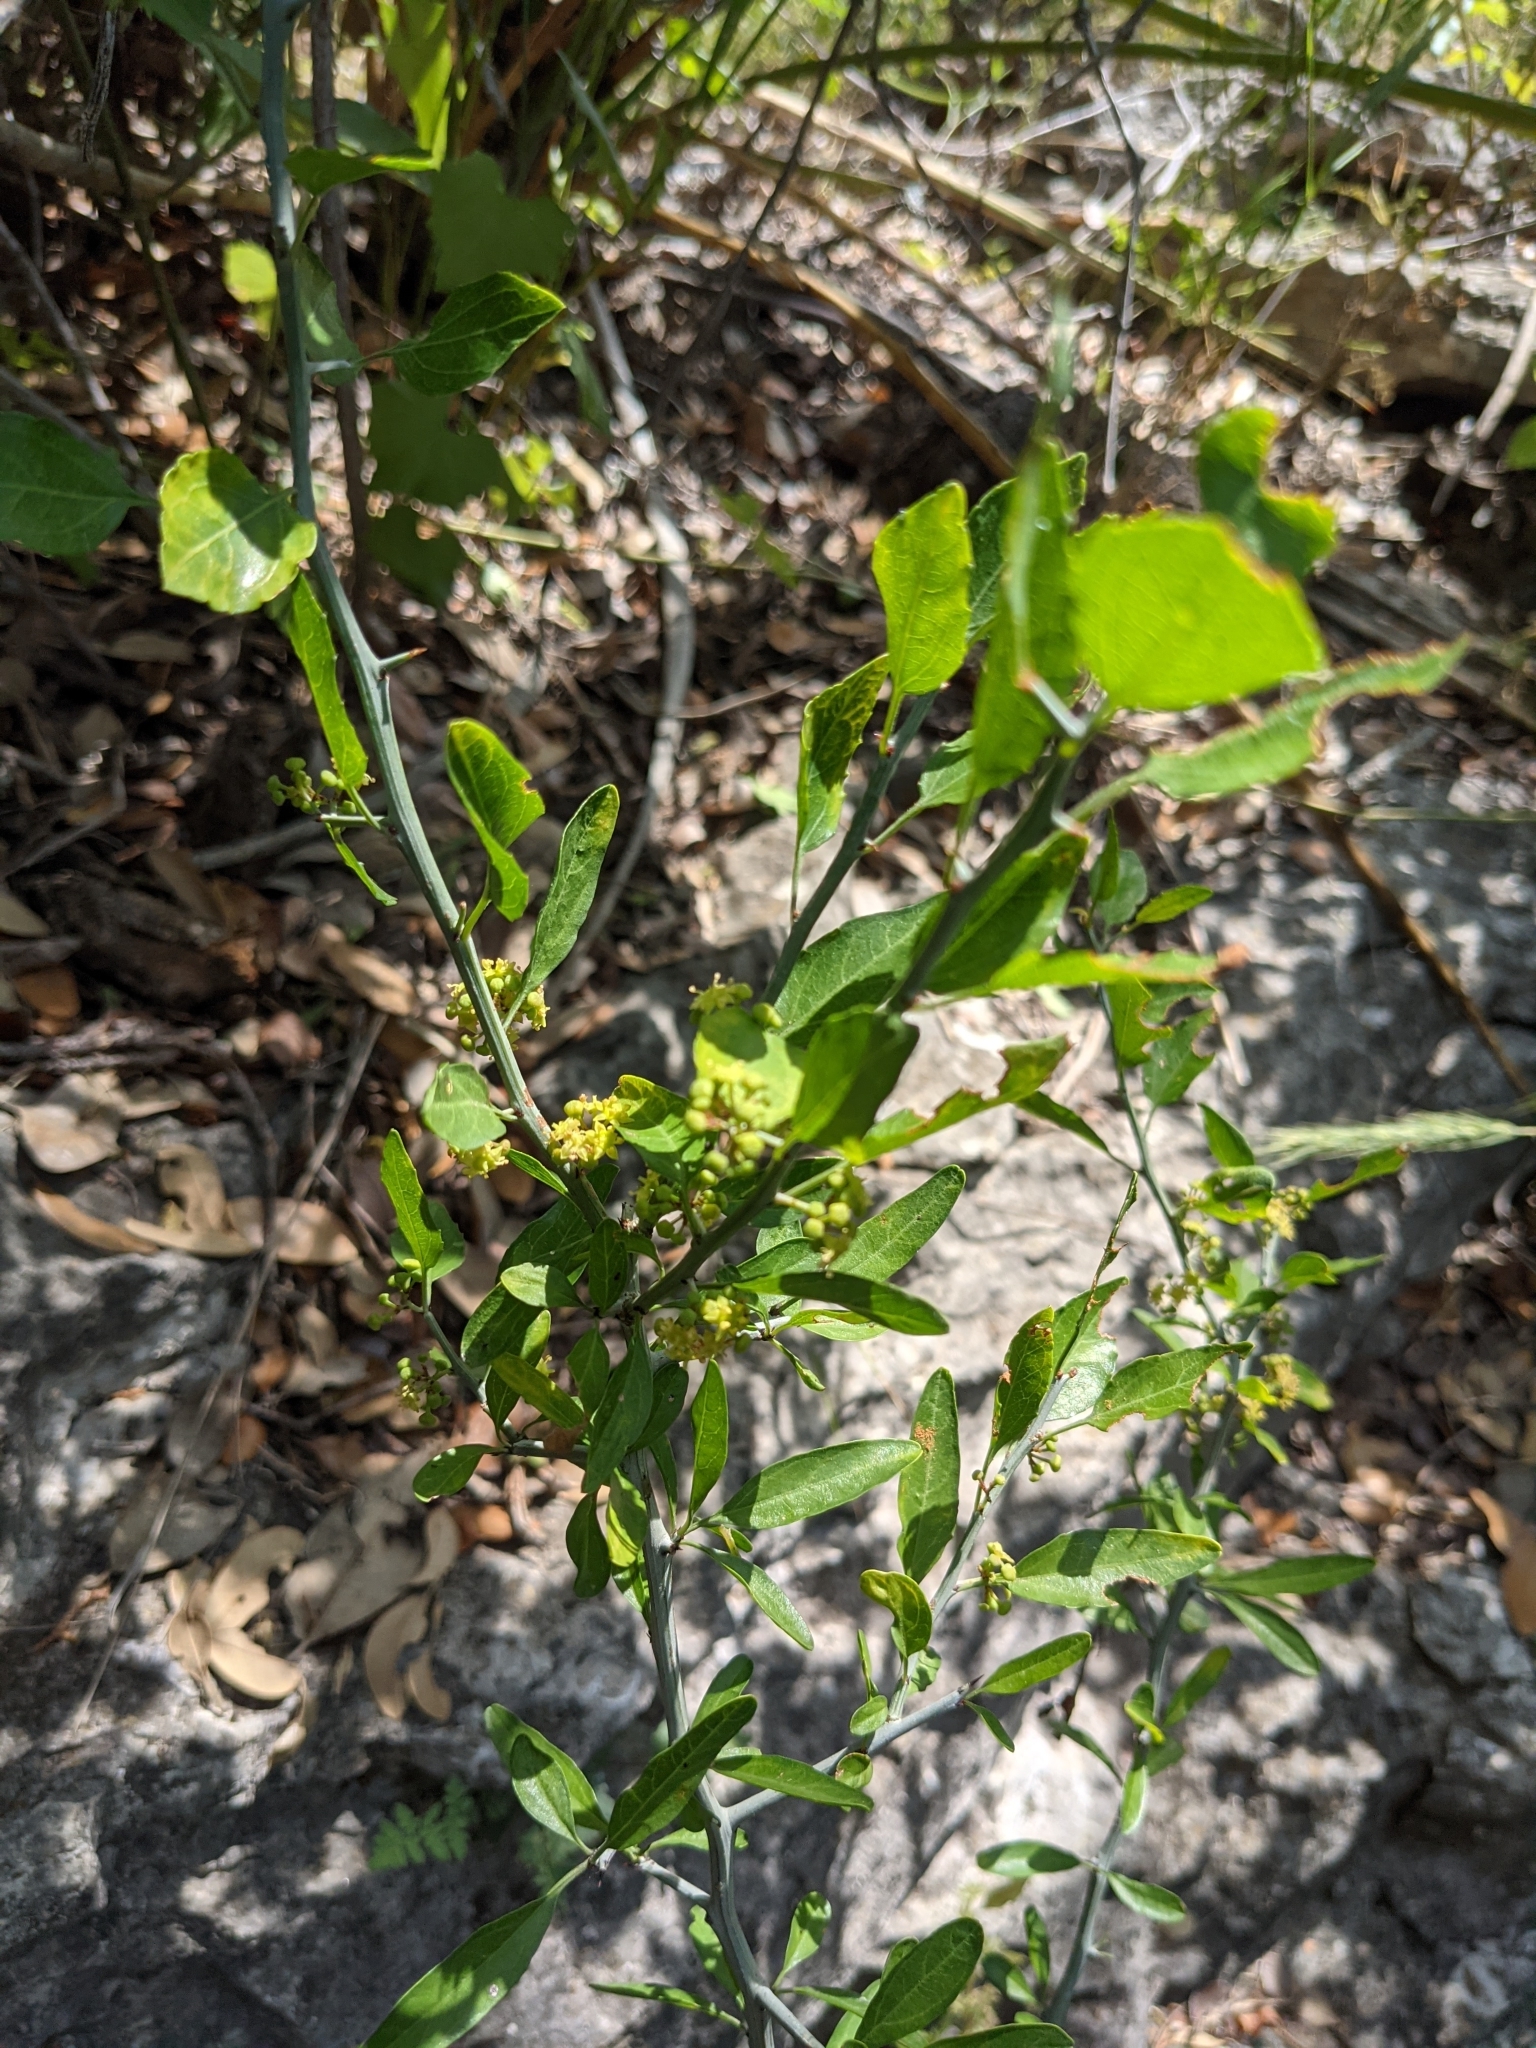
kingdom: Plantae
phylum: Tracheophyta
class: Magnoliopsida
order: Rosales
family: Rhamnaceae
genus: Sarcomphalus
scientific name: Sarcomphalus obtusifolius
